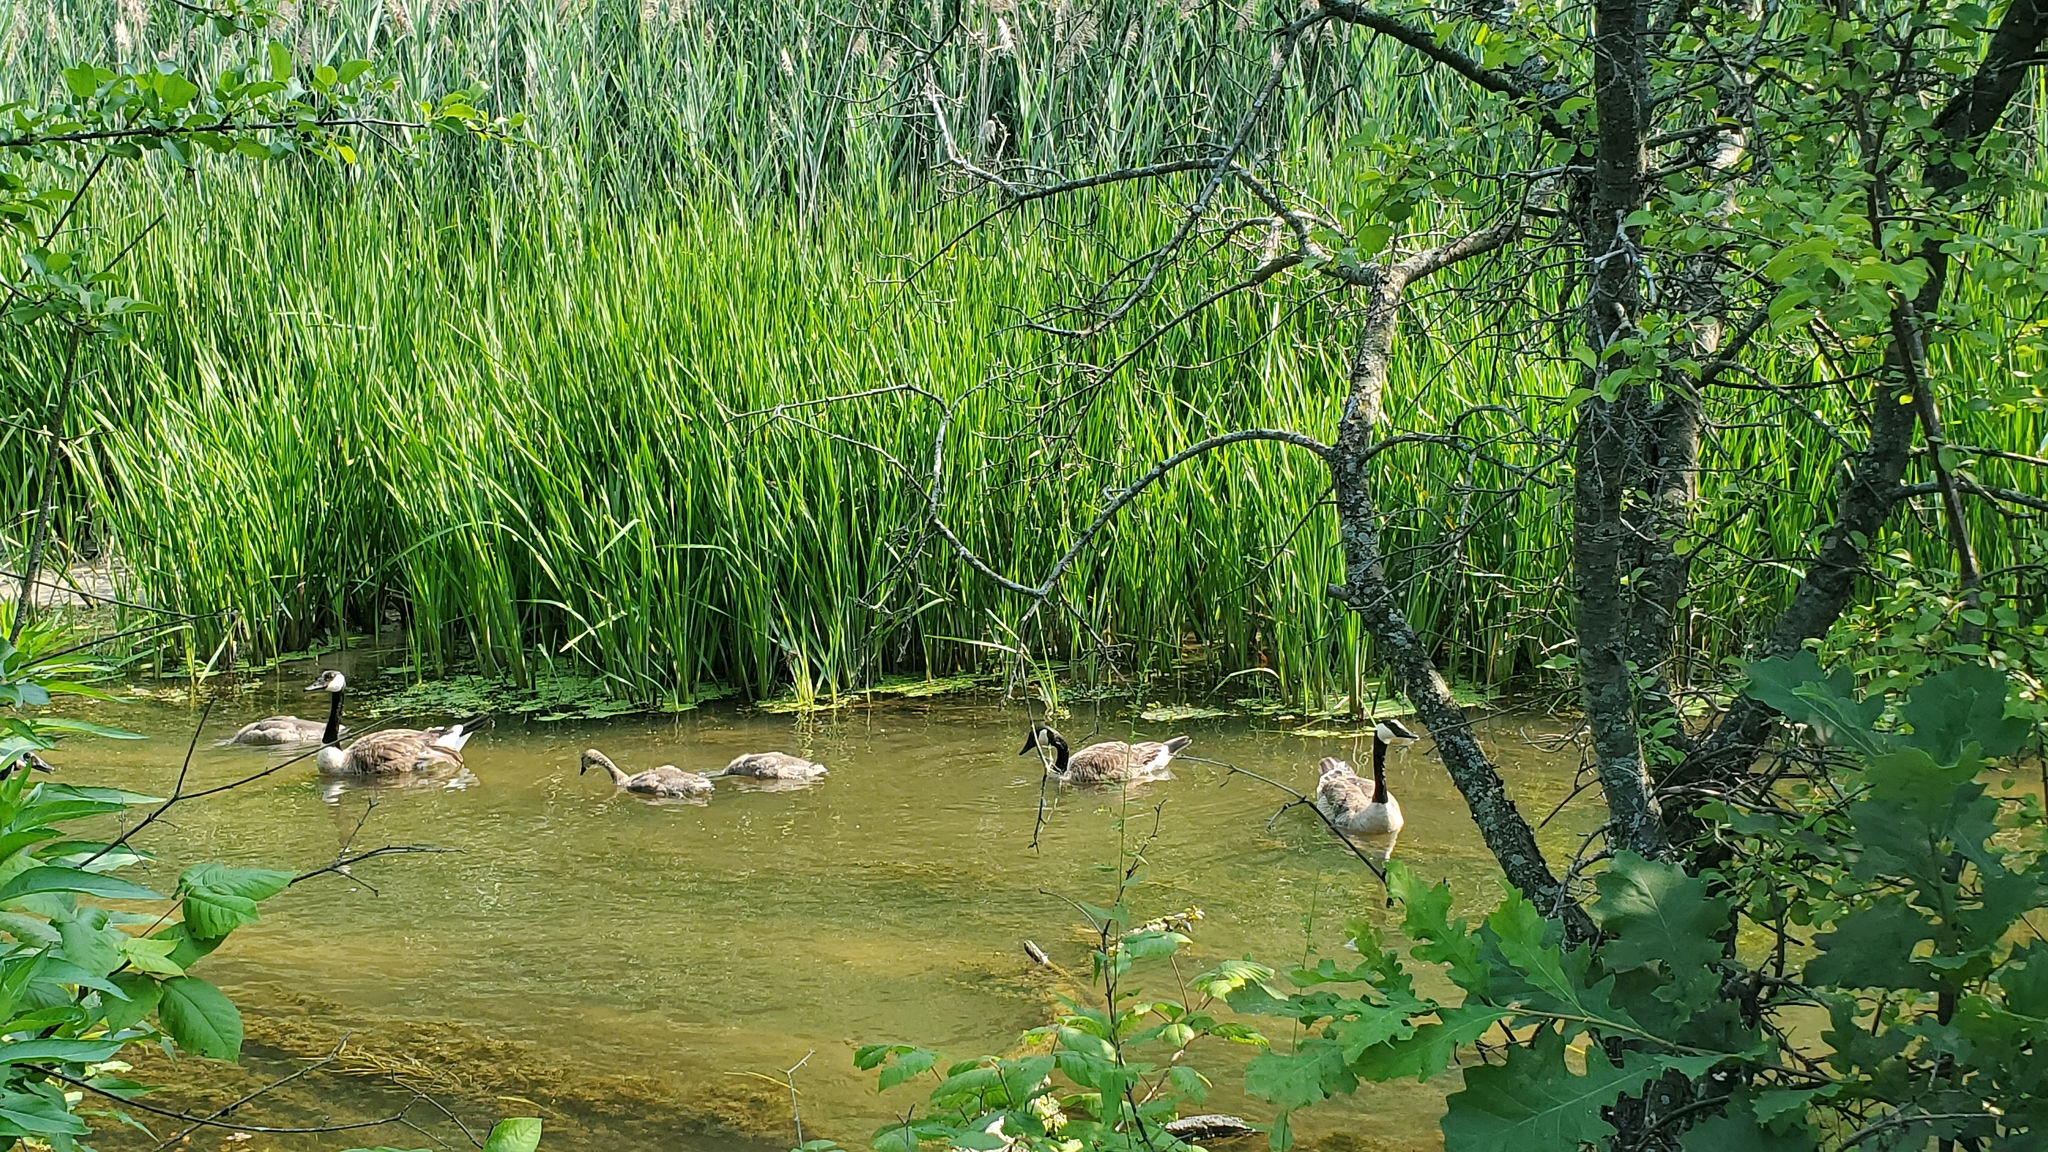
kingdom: Animalia
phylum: Chordata
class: Aves
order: Anseriformes
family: Anatidae
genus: Branta
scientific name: Branta canadensis
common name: Canada goose
